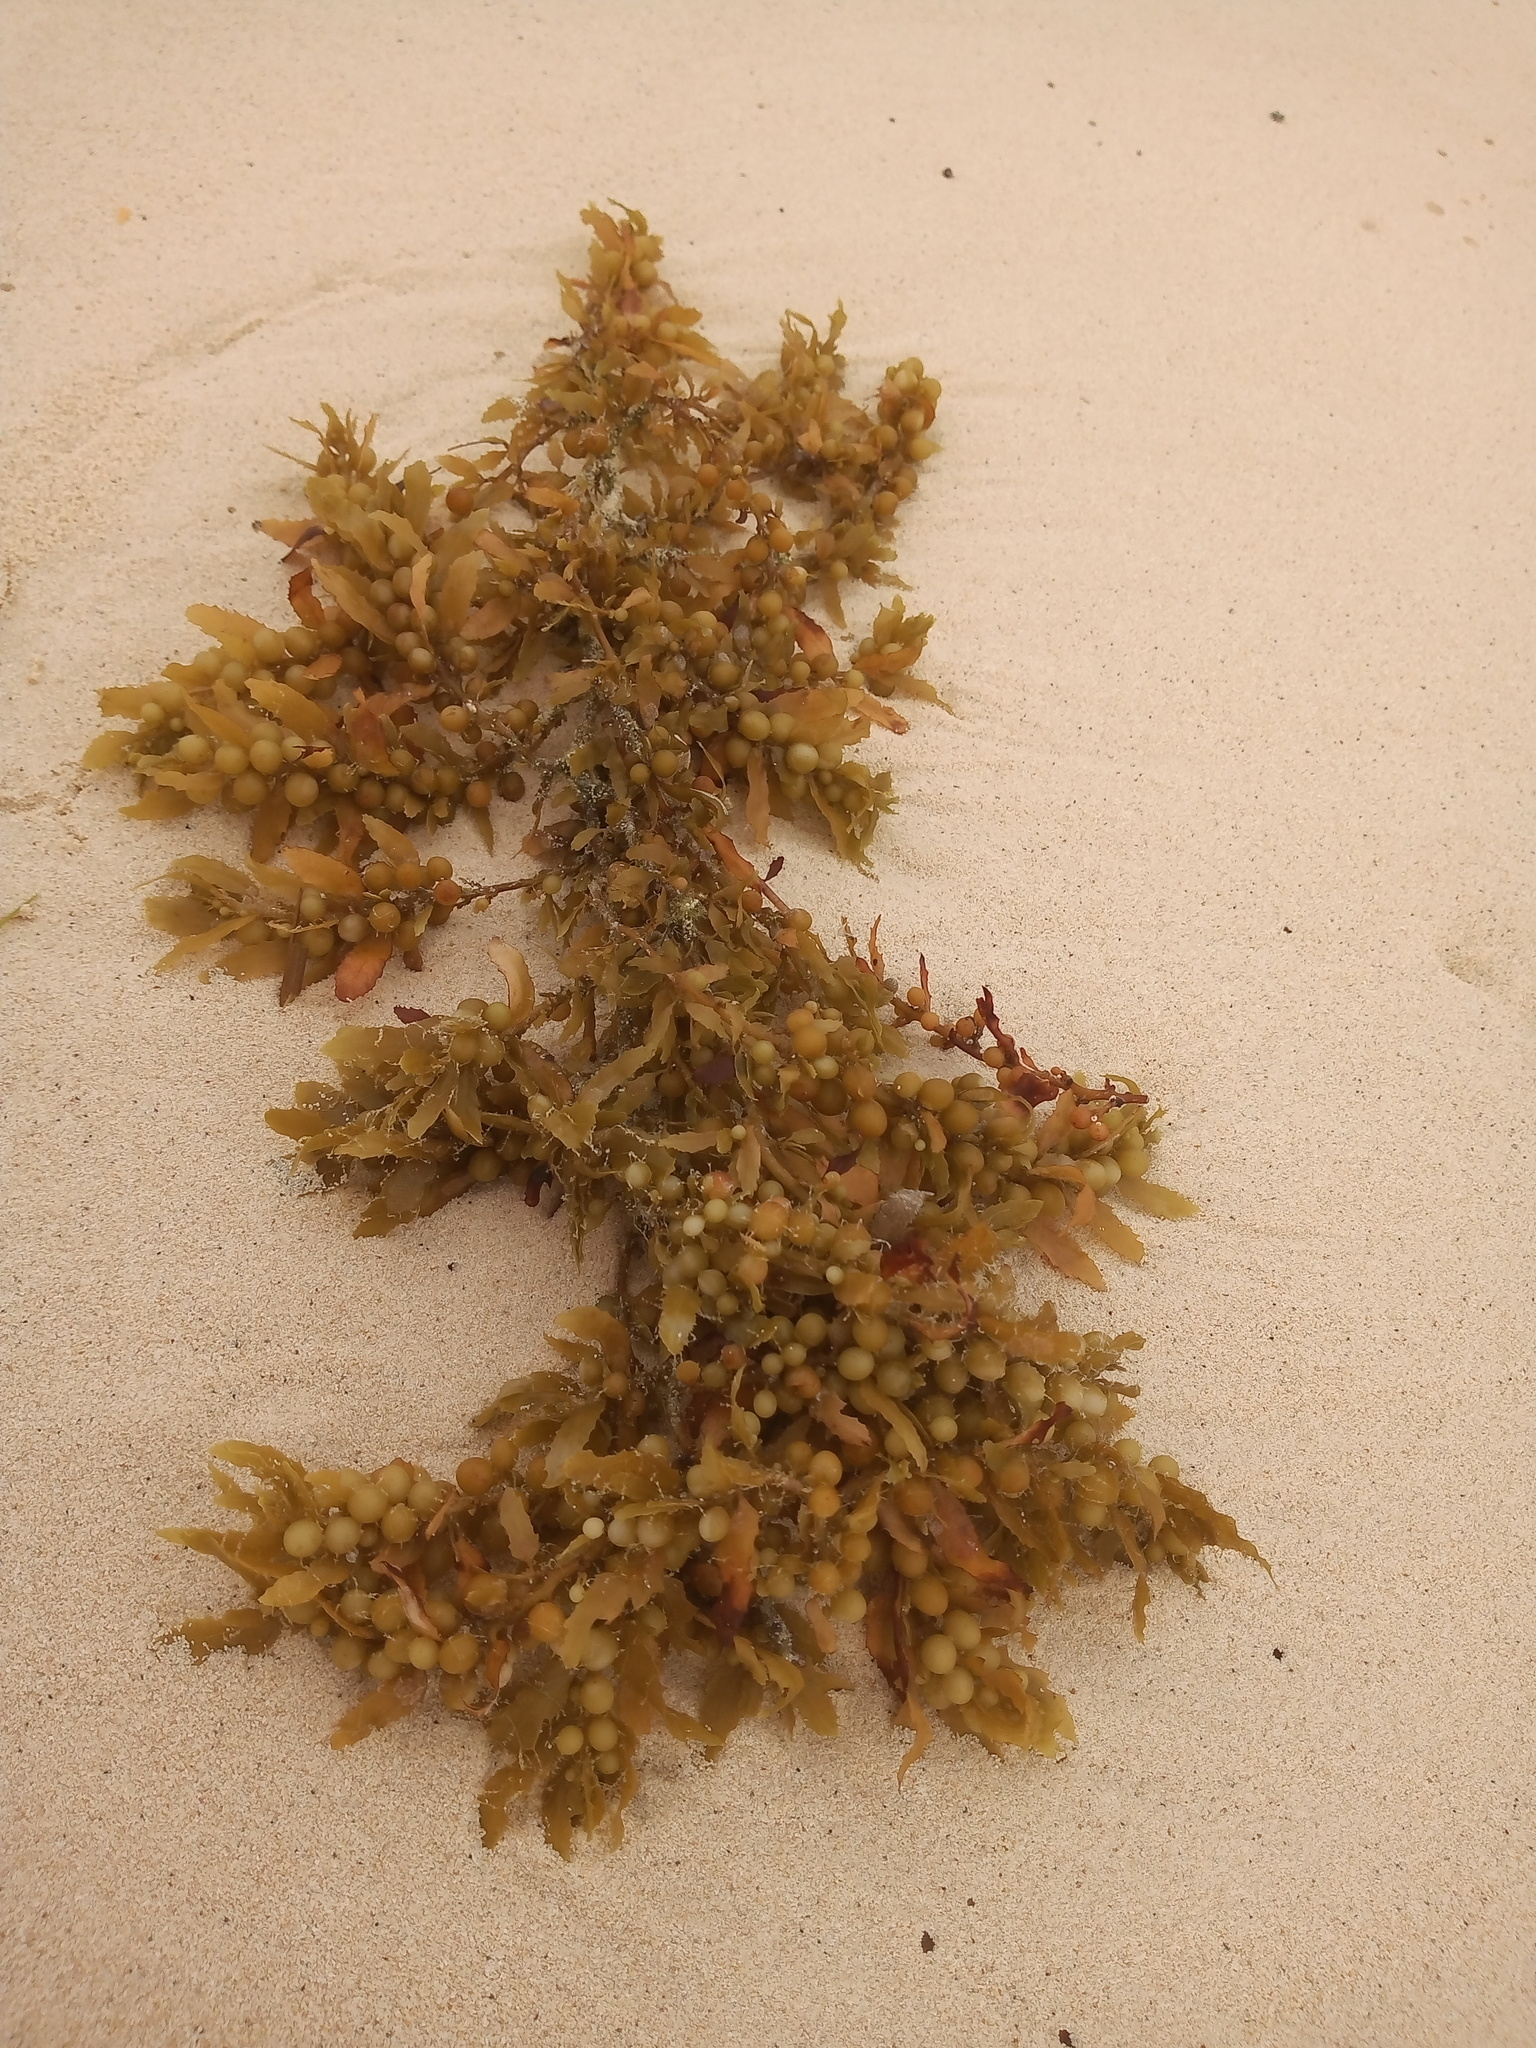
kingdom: Chromista
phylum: Ochrophyta
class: Phaeophyceae
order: Fucales
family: Sargassaceae
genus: Sargassum
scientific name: Sargassum fluitans
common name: Sargassum seaweed
